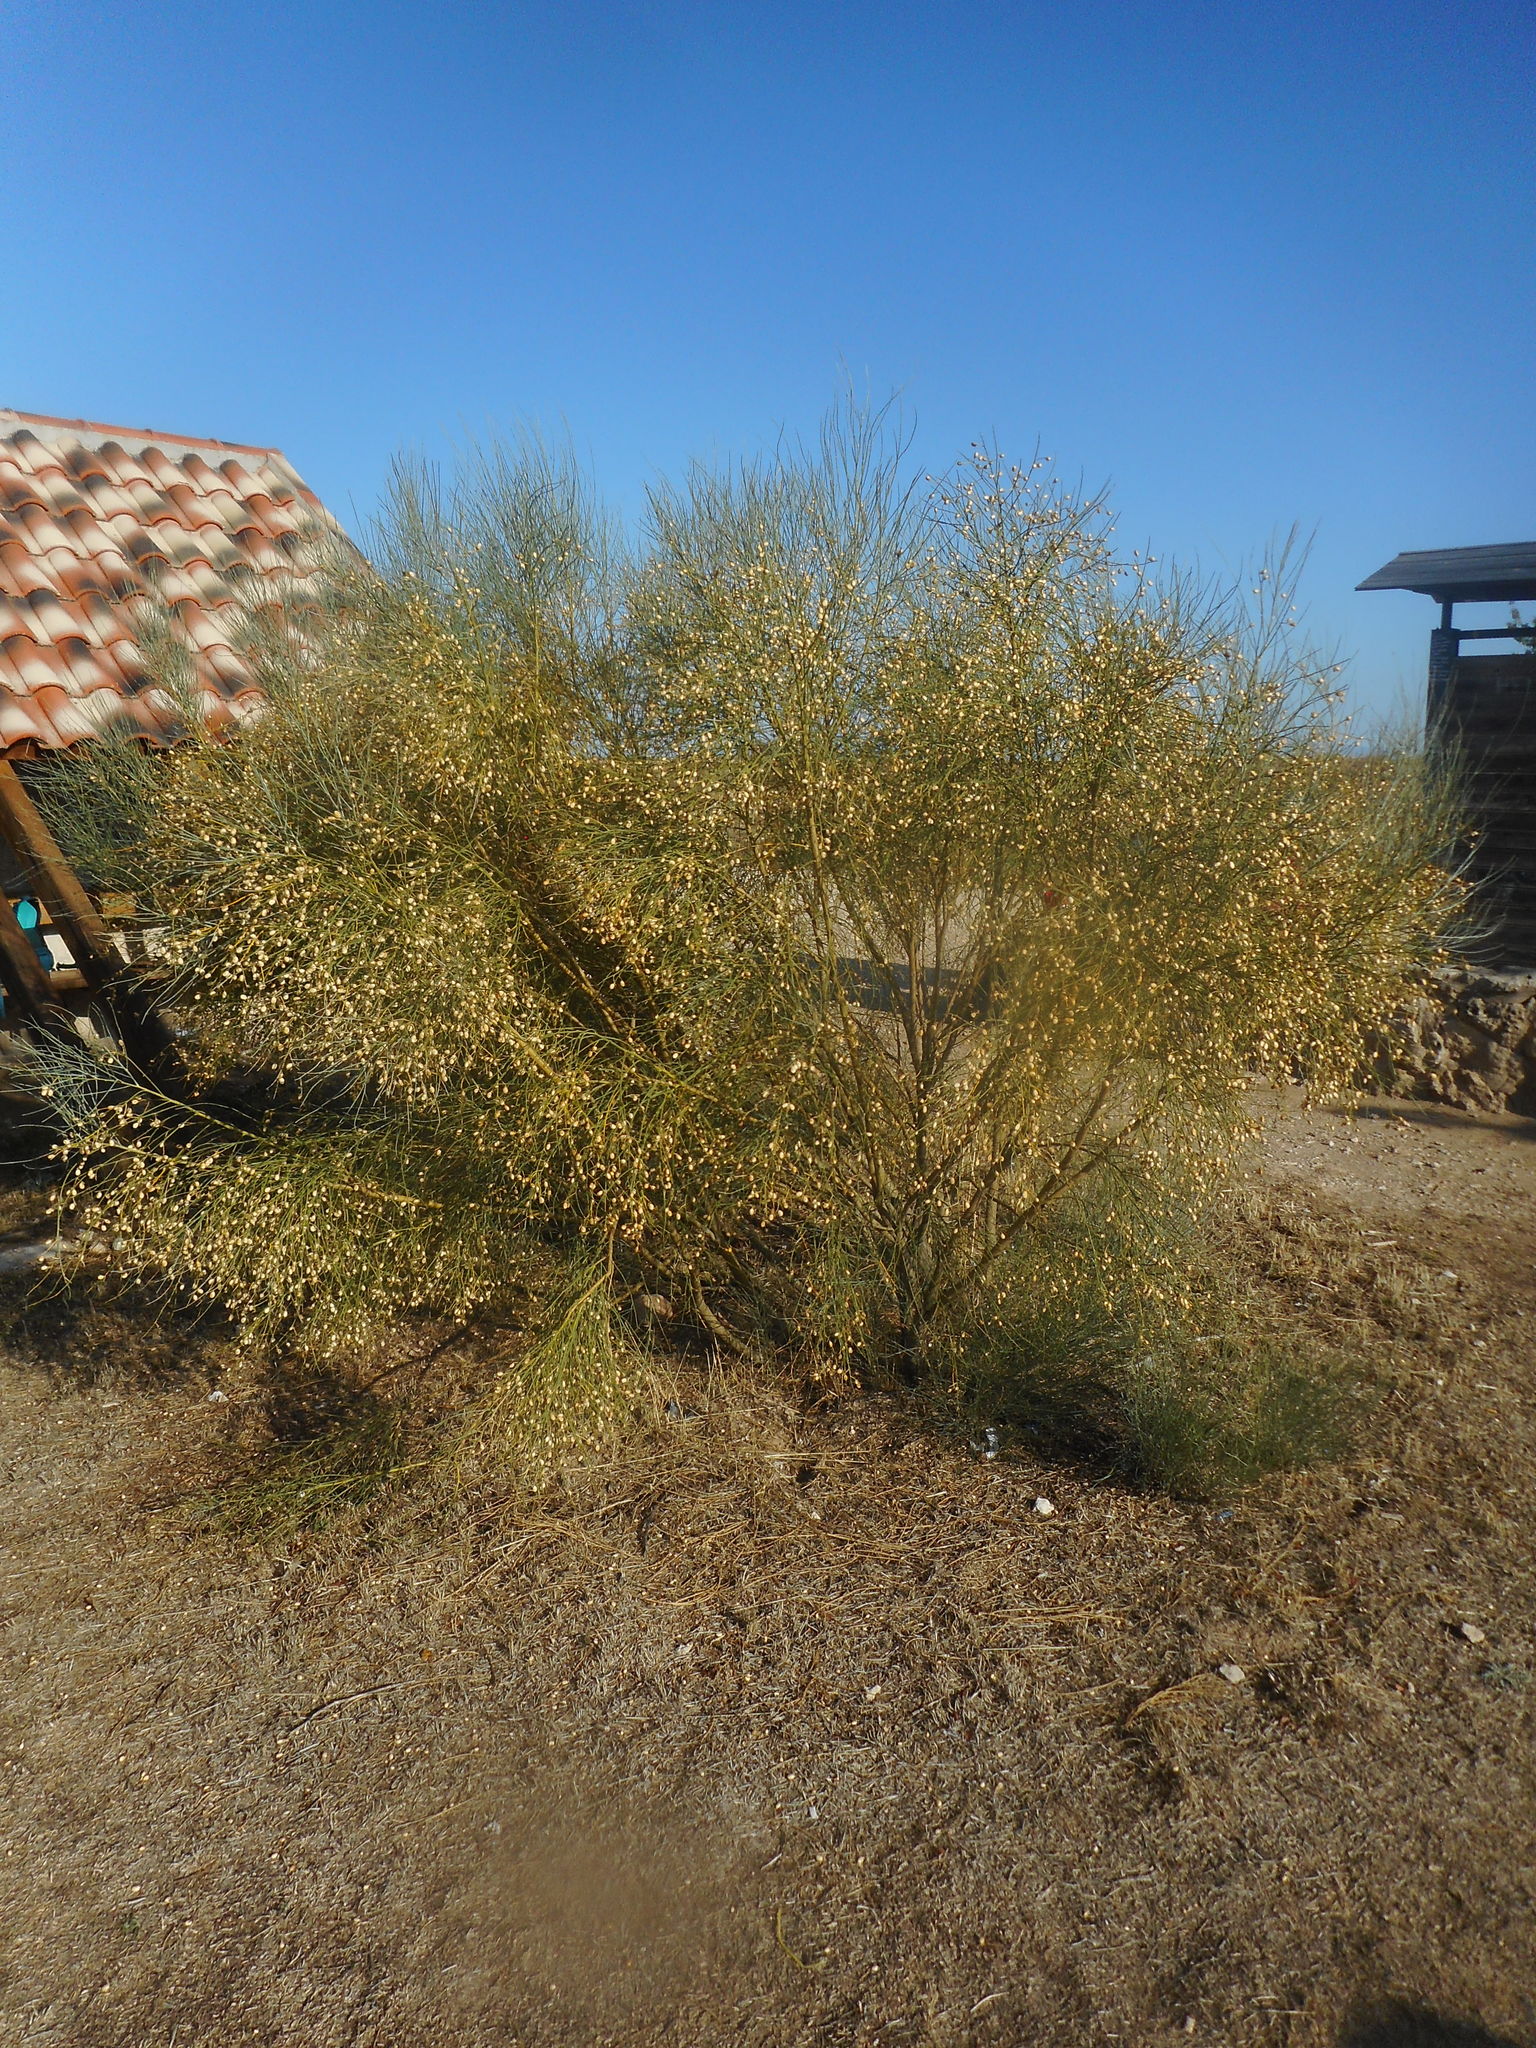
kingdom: Plantae
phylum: Tracheophyta
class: Magnoliopsida
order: Fabales
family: Fabaceae
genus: Retama
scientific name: Retama sphaerocarpa
